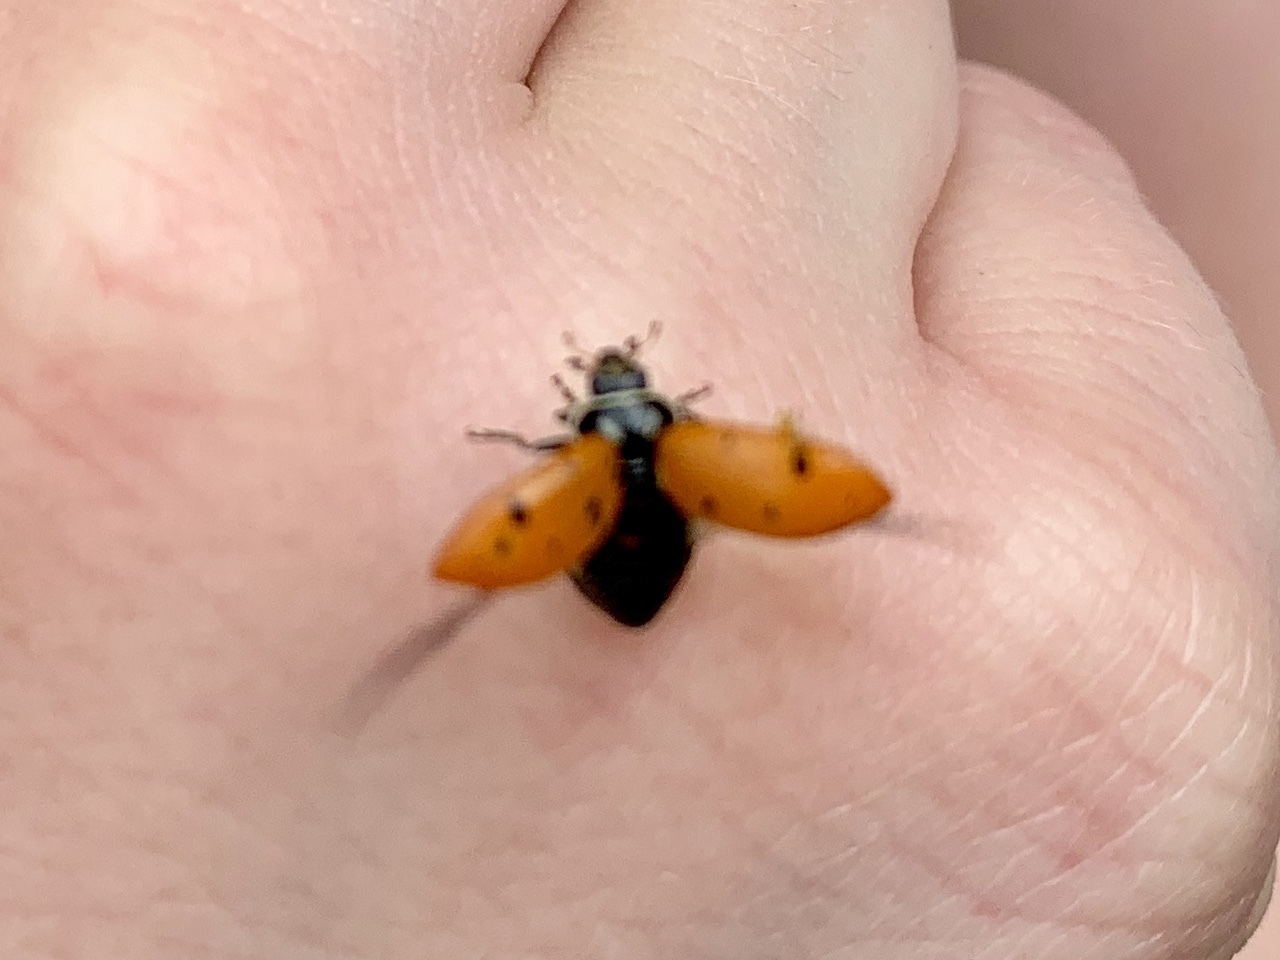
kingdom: Animalia
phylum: Arthropoda
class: Insecta
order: Coleoptera
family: Coccinellidae
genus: Hippodamia
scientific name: Hippodamia convergens
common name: Convergent lady beetle
